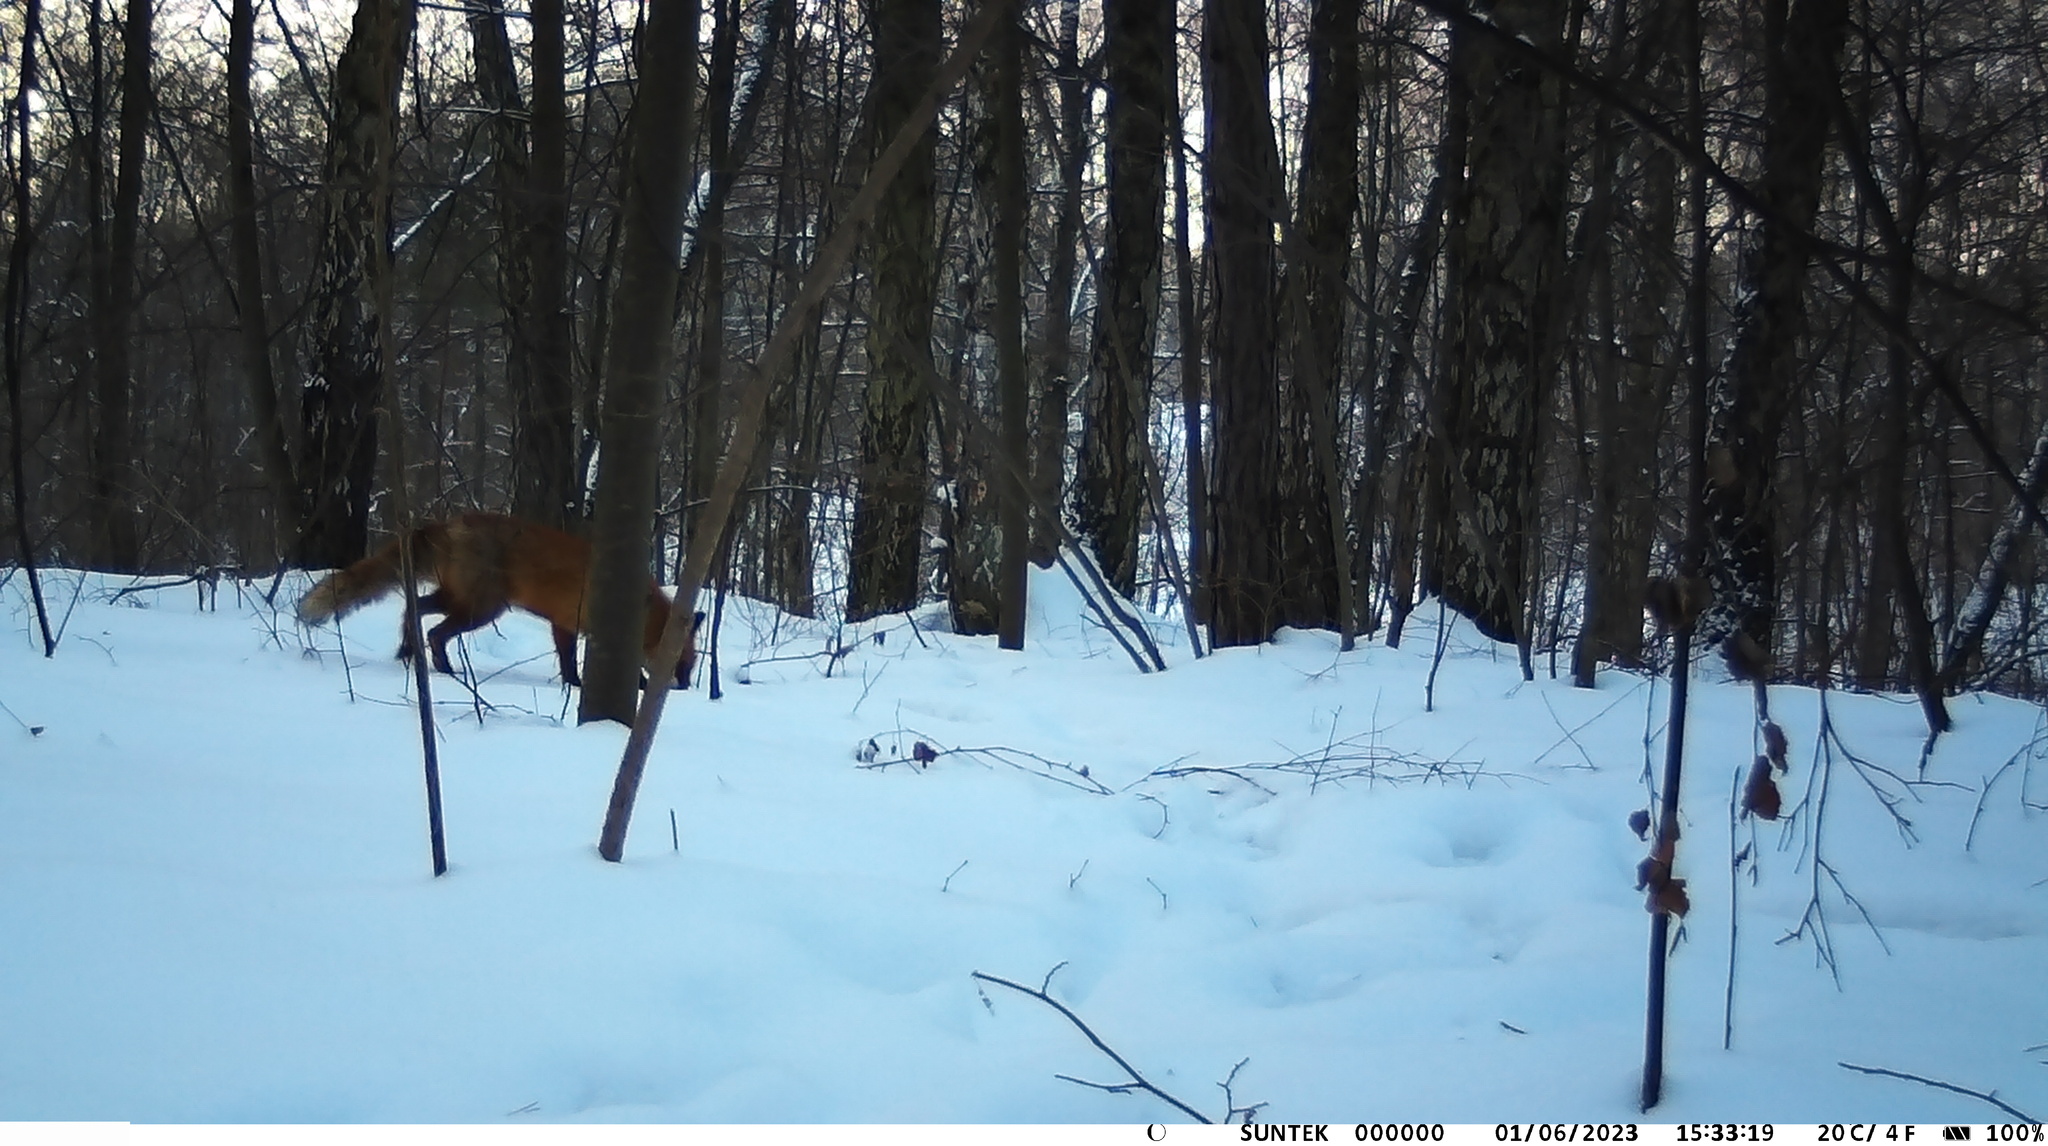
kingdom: Animalia
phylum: Chordata
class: Mammalia
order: Carnivora
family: Canidae
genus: Vulpes
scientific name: Vulpes vulpes
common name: Red fox
